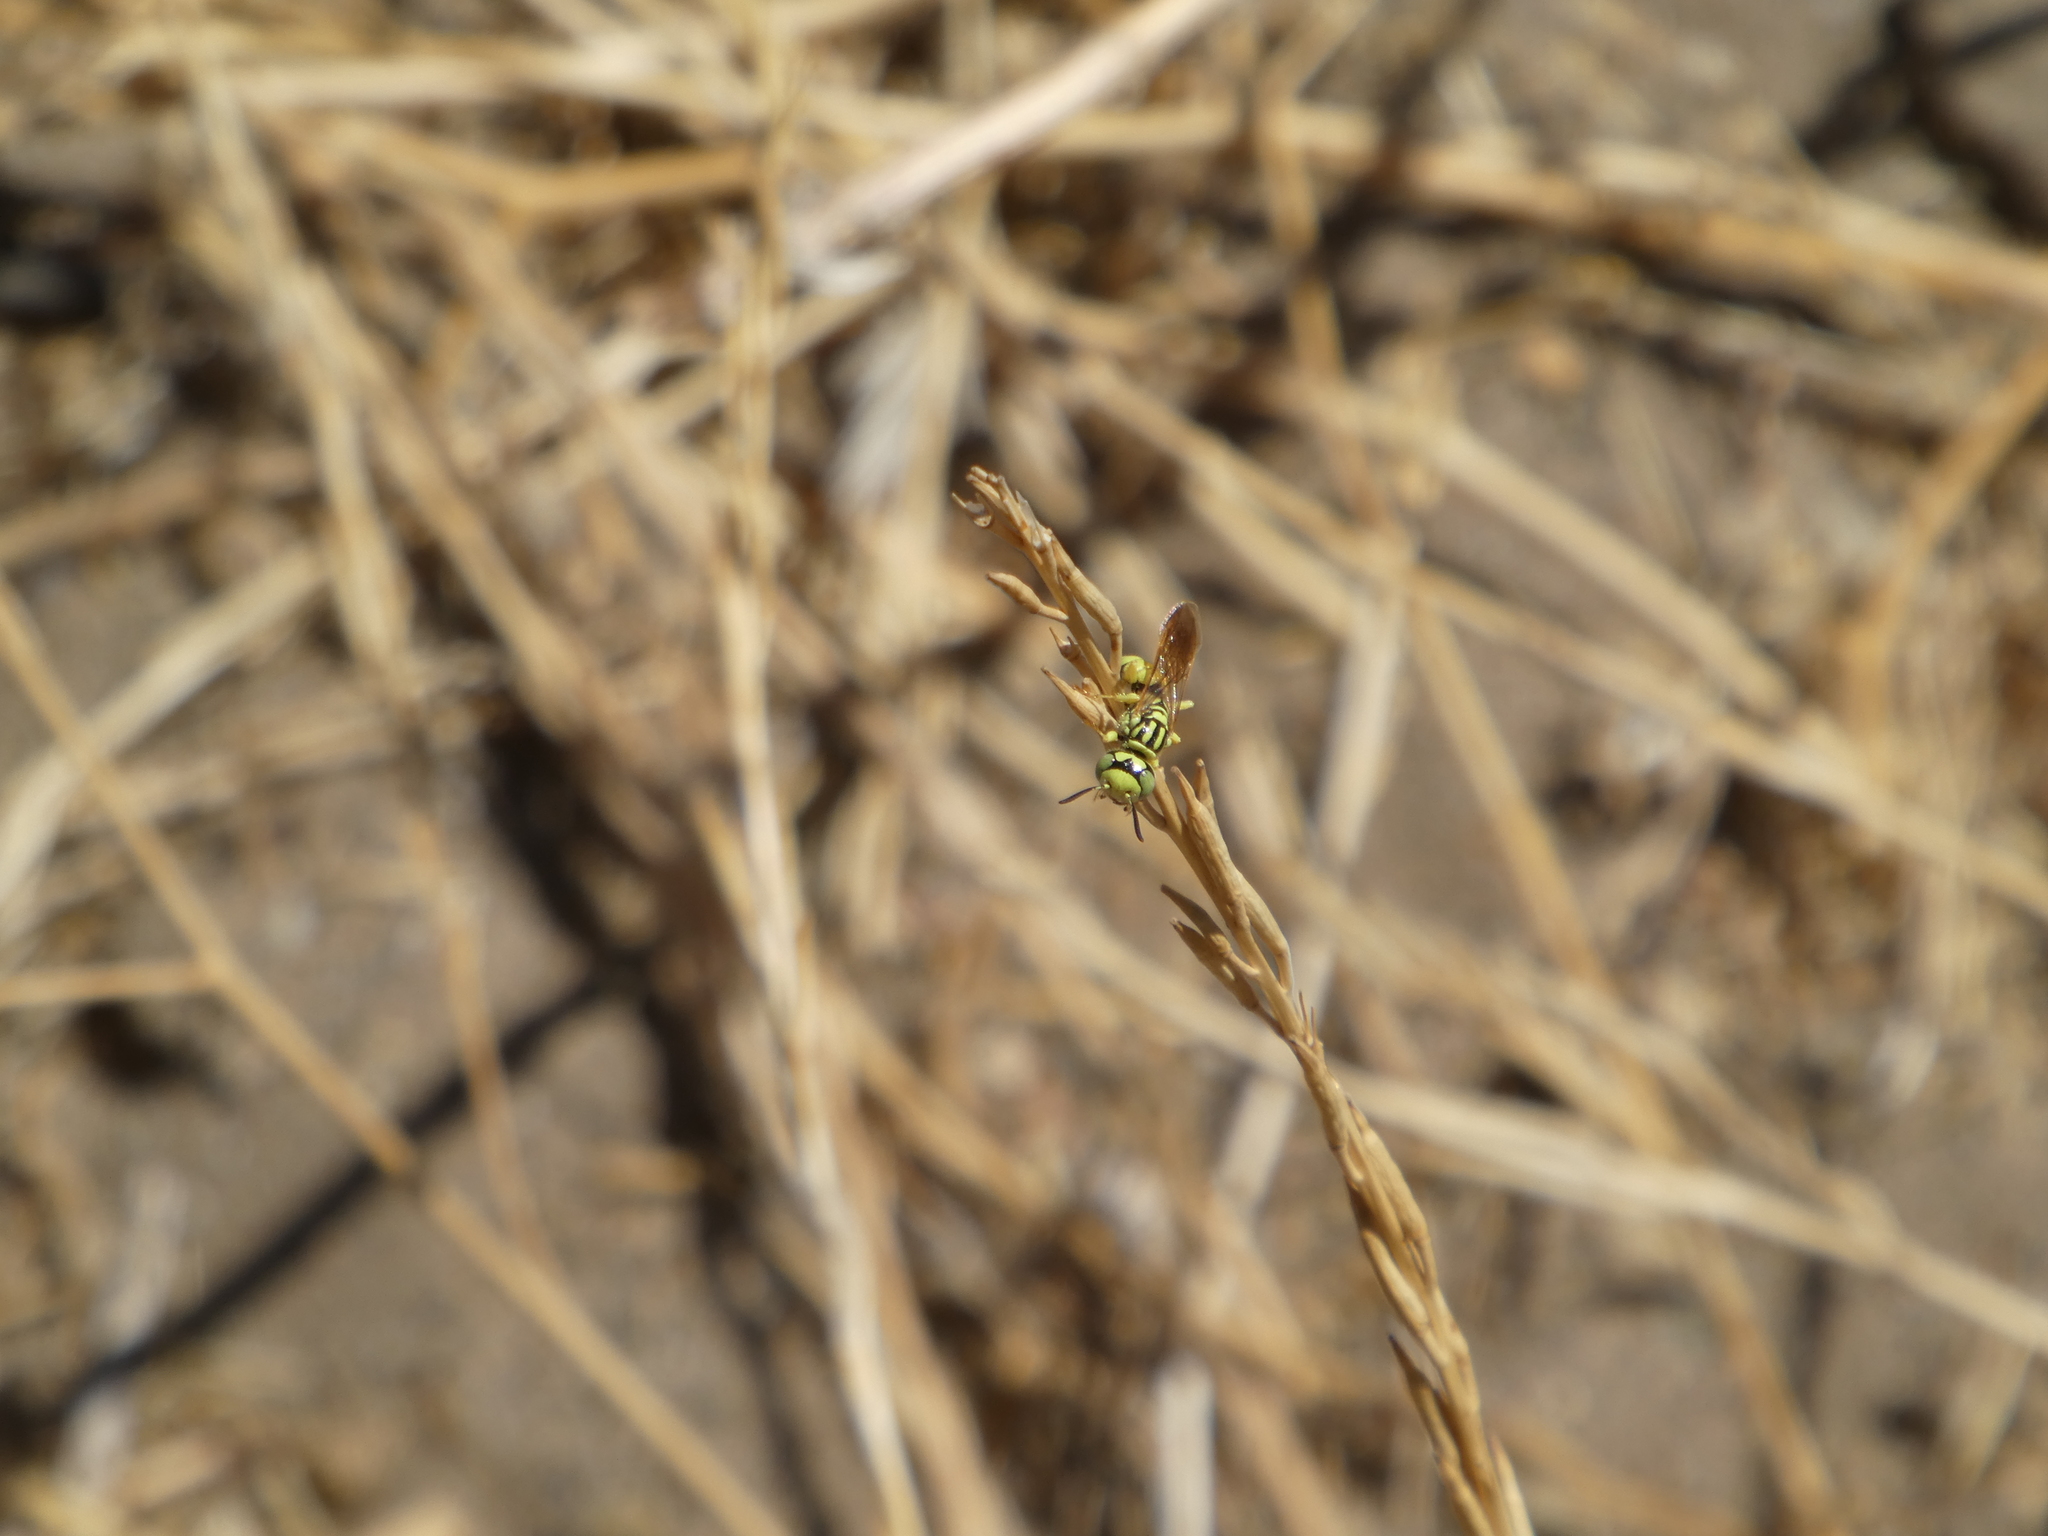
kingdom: Animalia
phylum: Arthropoda
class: Insecta
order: Hymenoptera
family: Crabronidae
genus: Philanthus
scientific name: Philanthus multimaculatus
